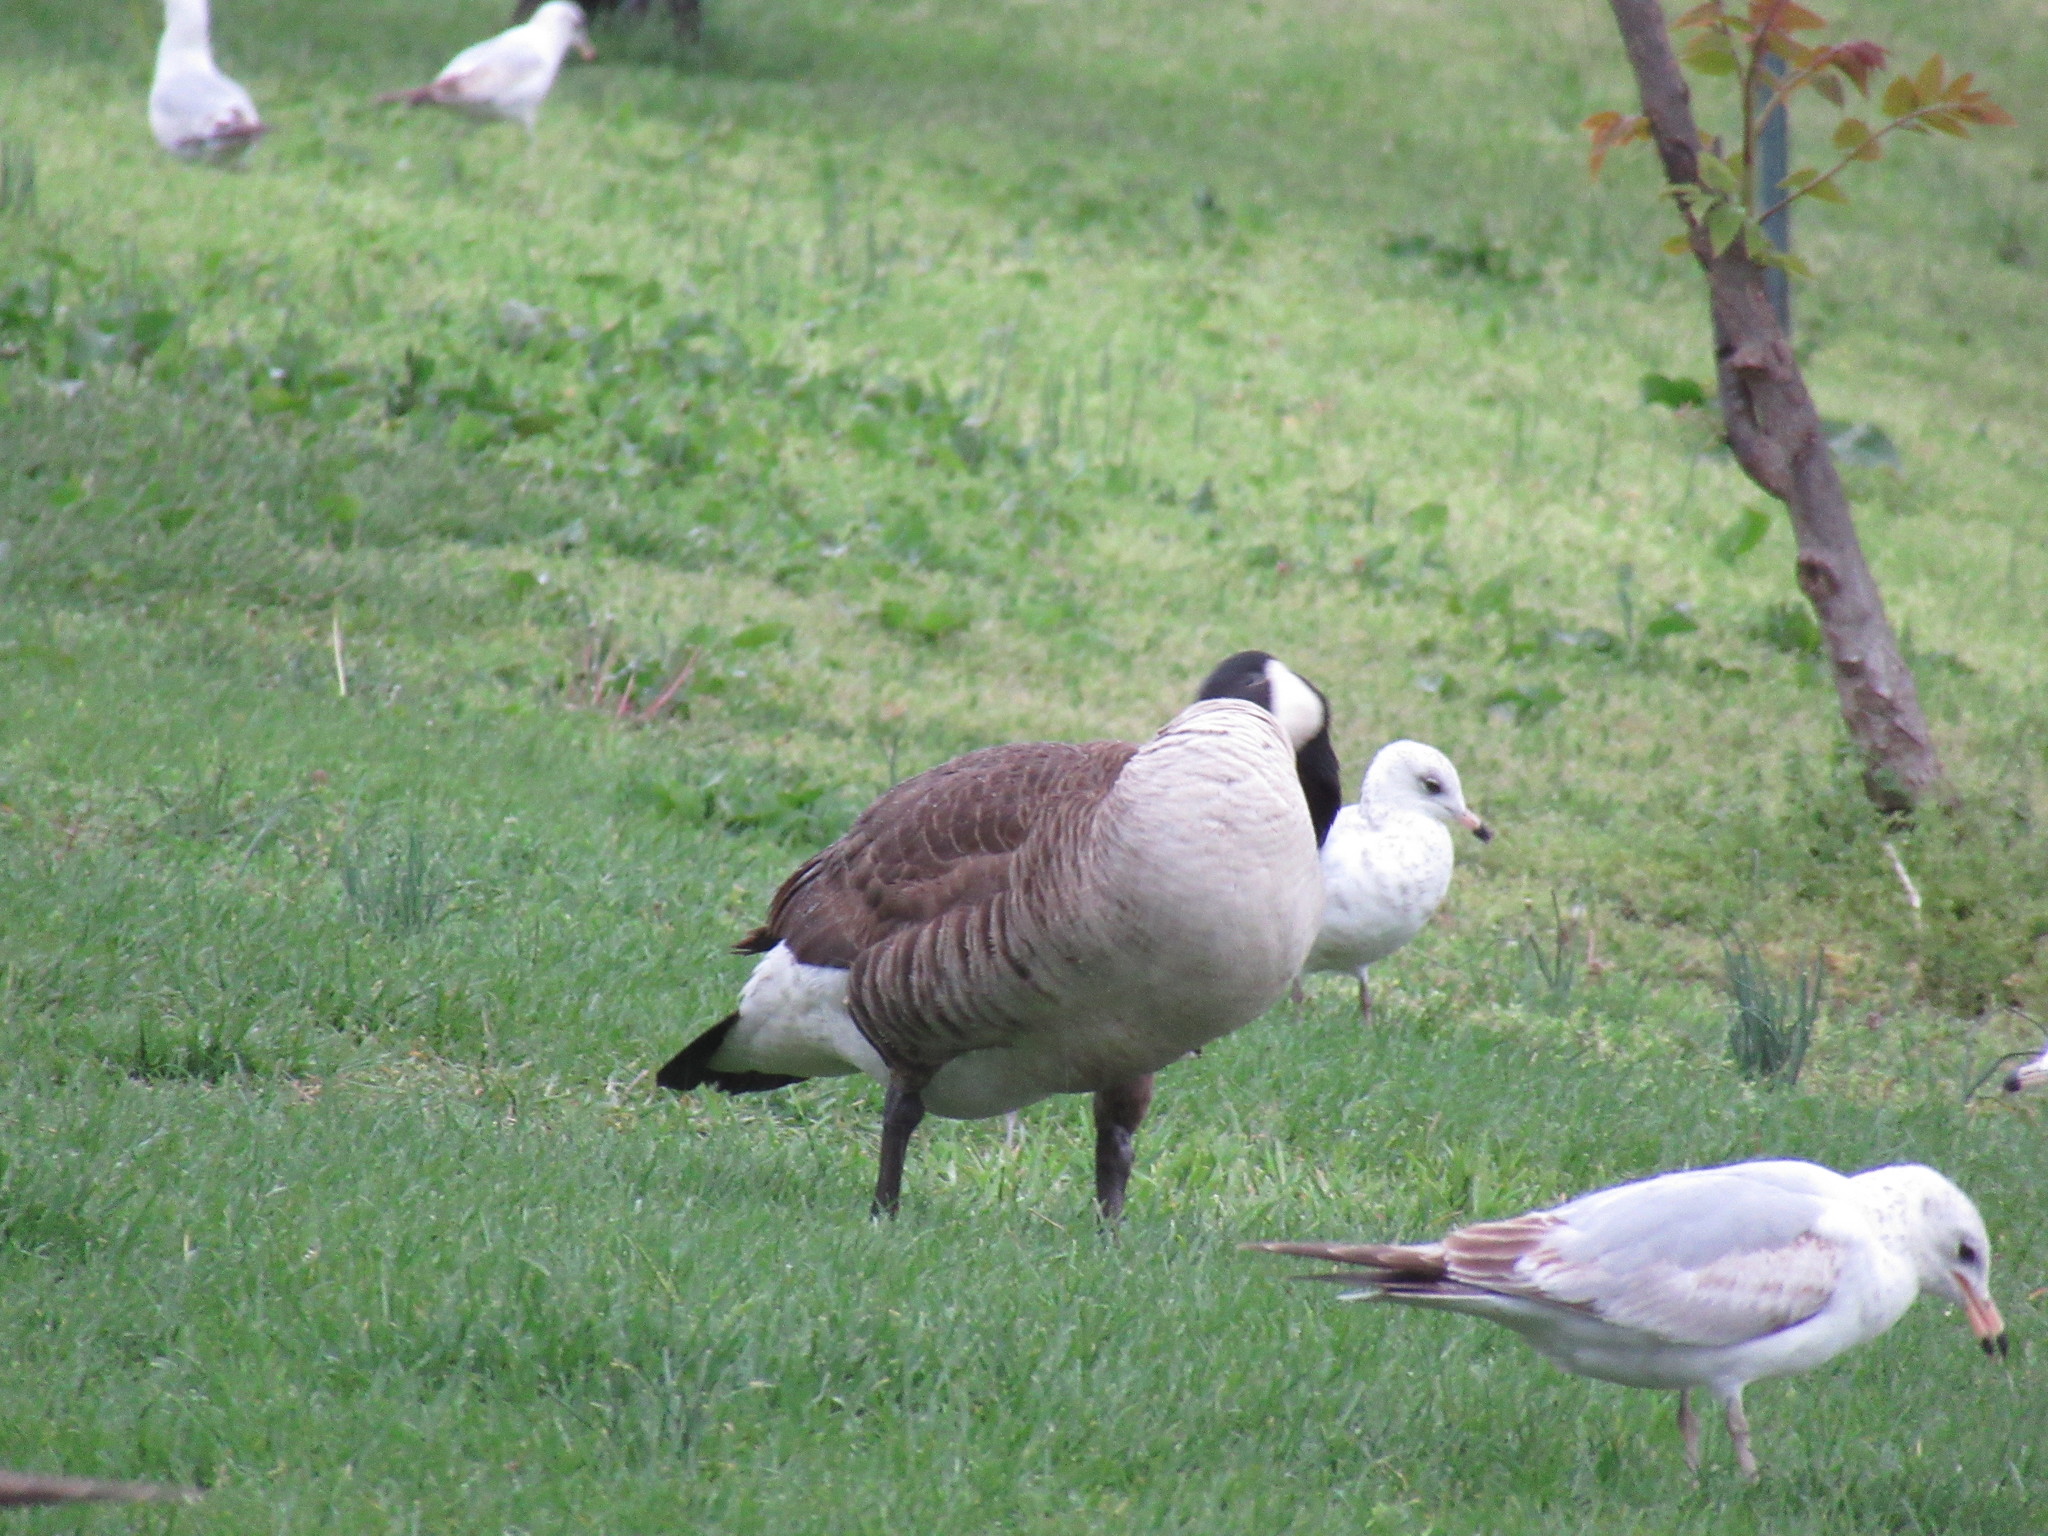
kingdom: Animalia
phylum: Chordata
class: Aves
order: Anseriformes
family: Anatidae
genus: Branta
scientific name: Branta canadensis
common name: Canada goose
